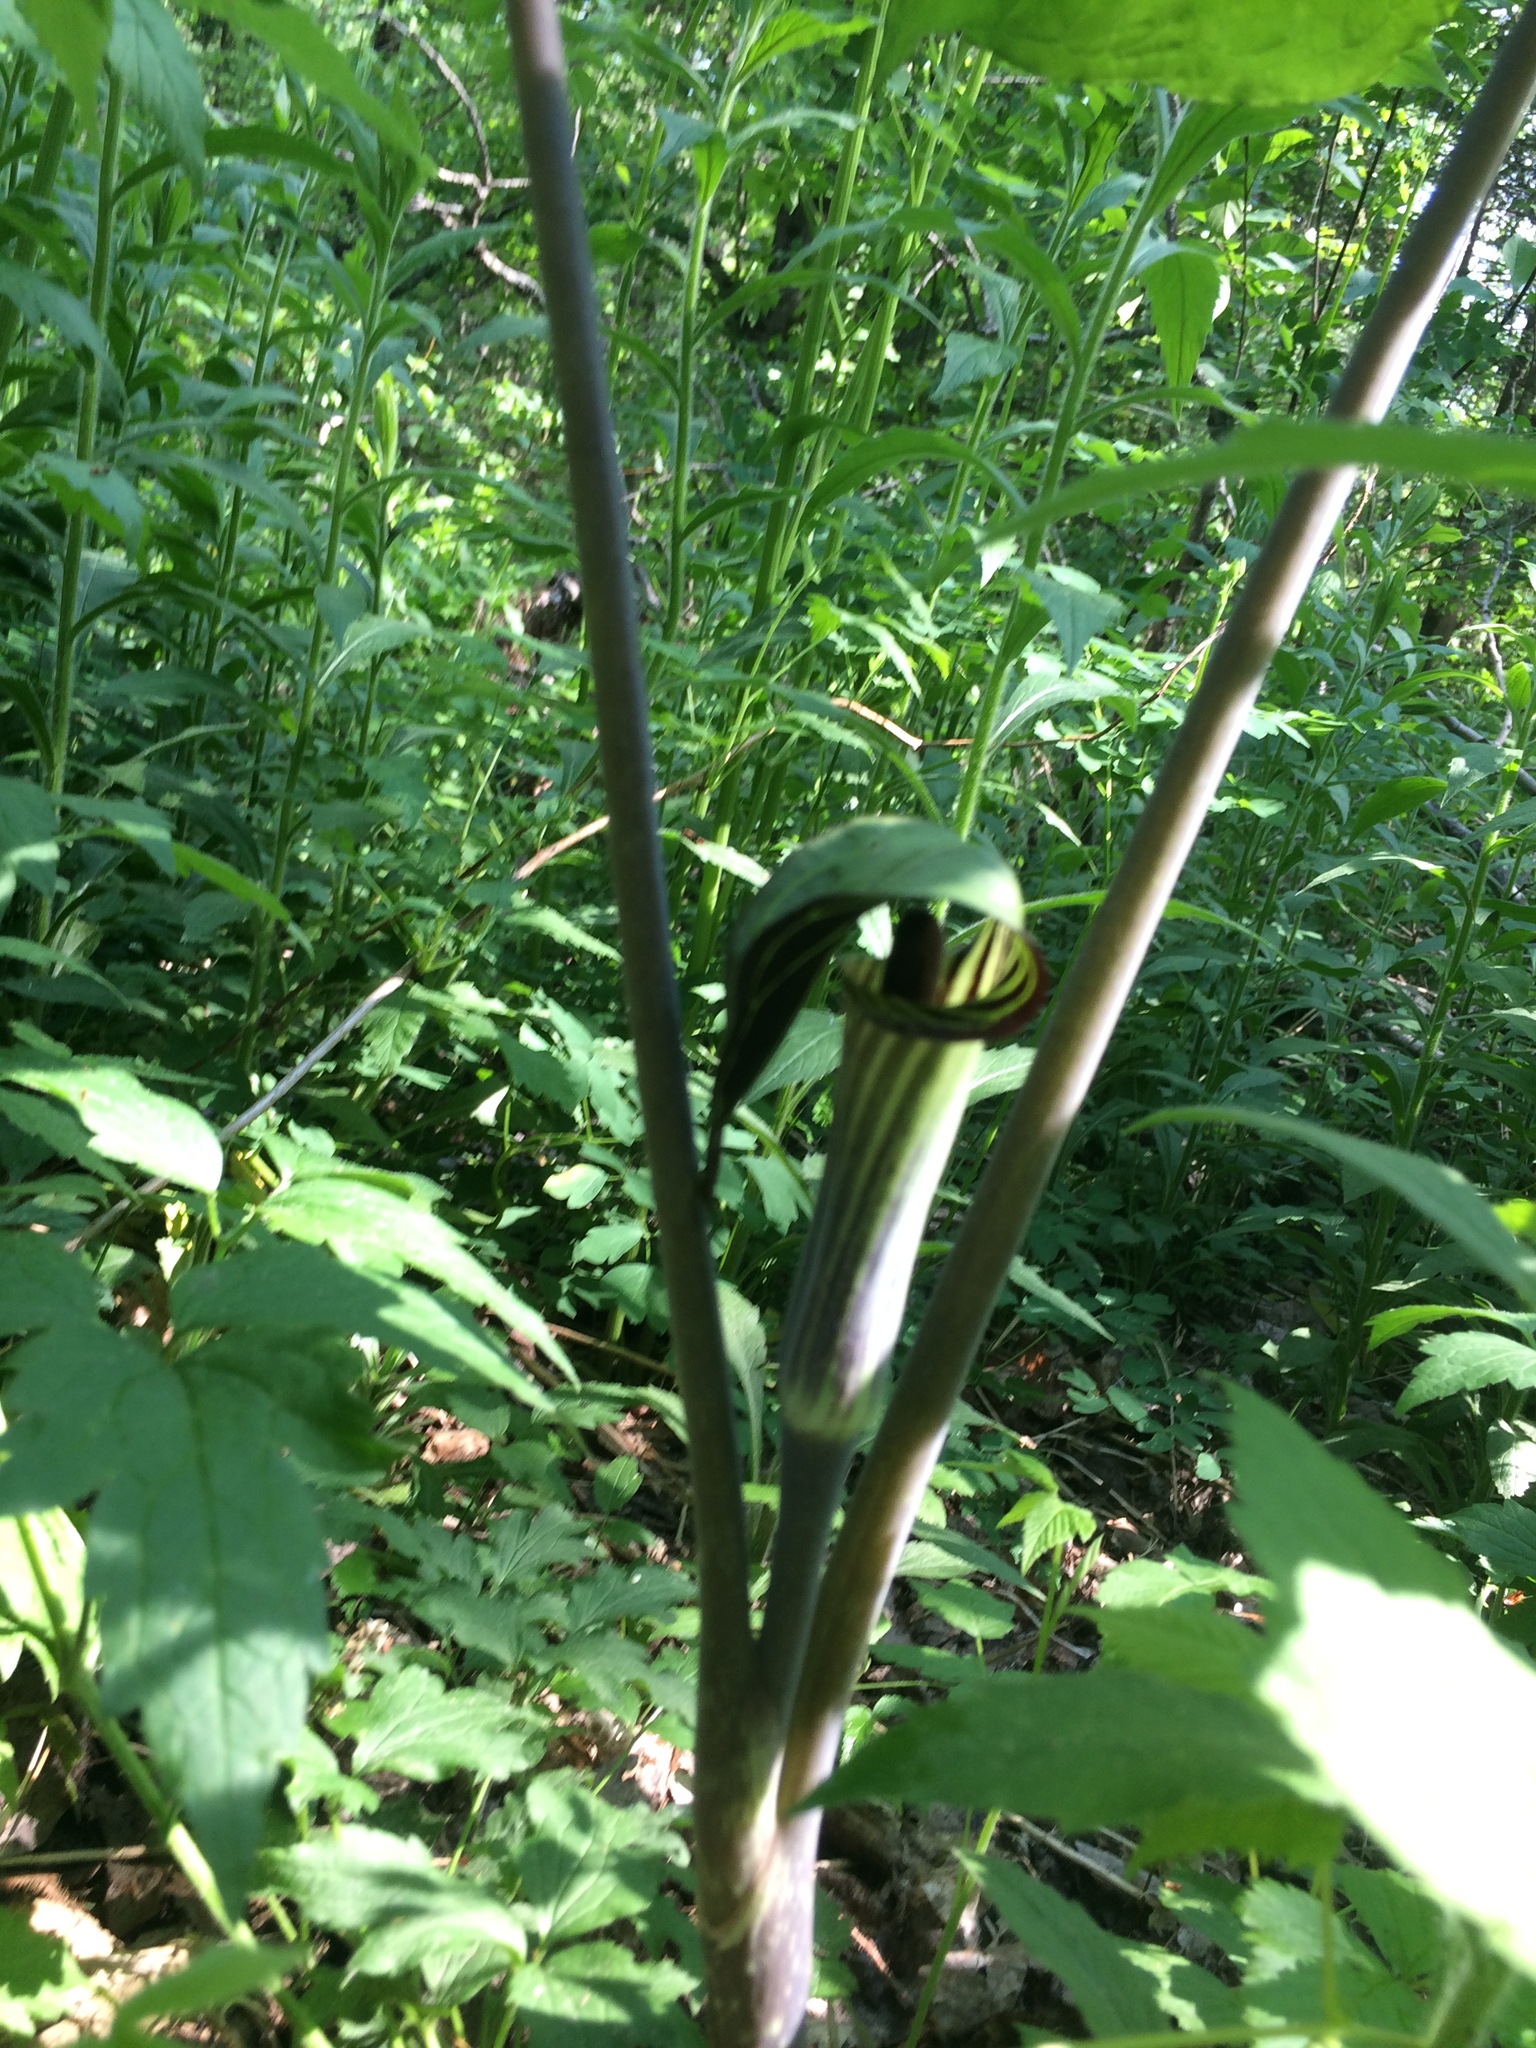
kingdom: Plantae
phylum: Tracheophyta
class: Liliopsida
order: Alismatales
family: Araceae
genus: Arisaema
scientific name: Arisaema triphyllum
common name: Jack-in-the-pulpit
